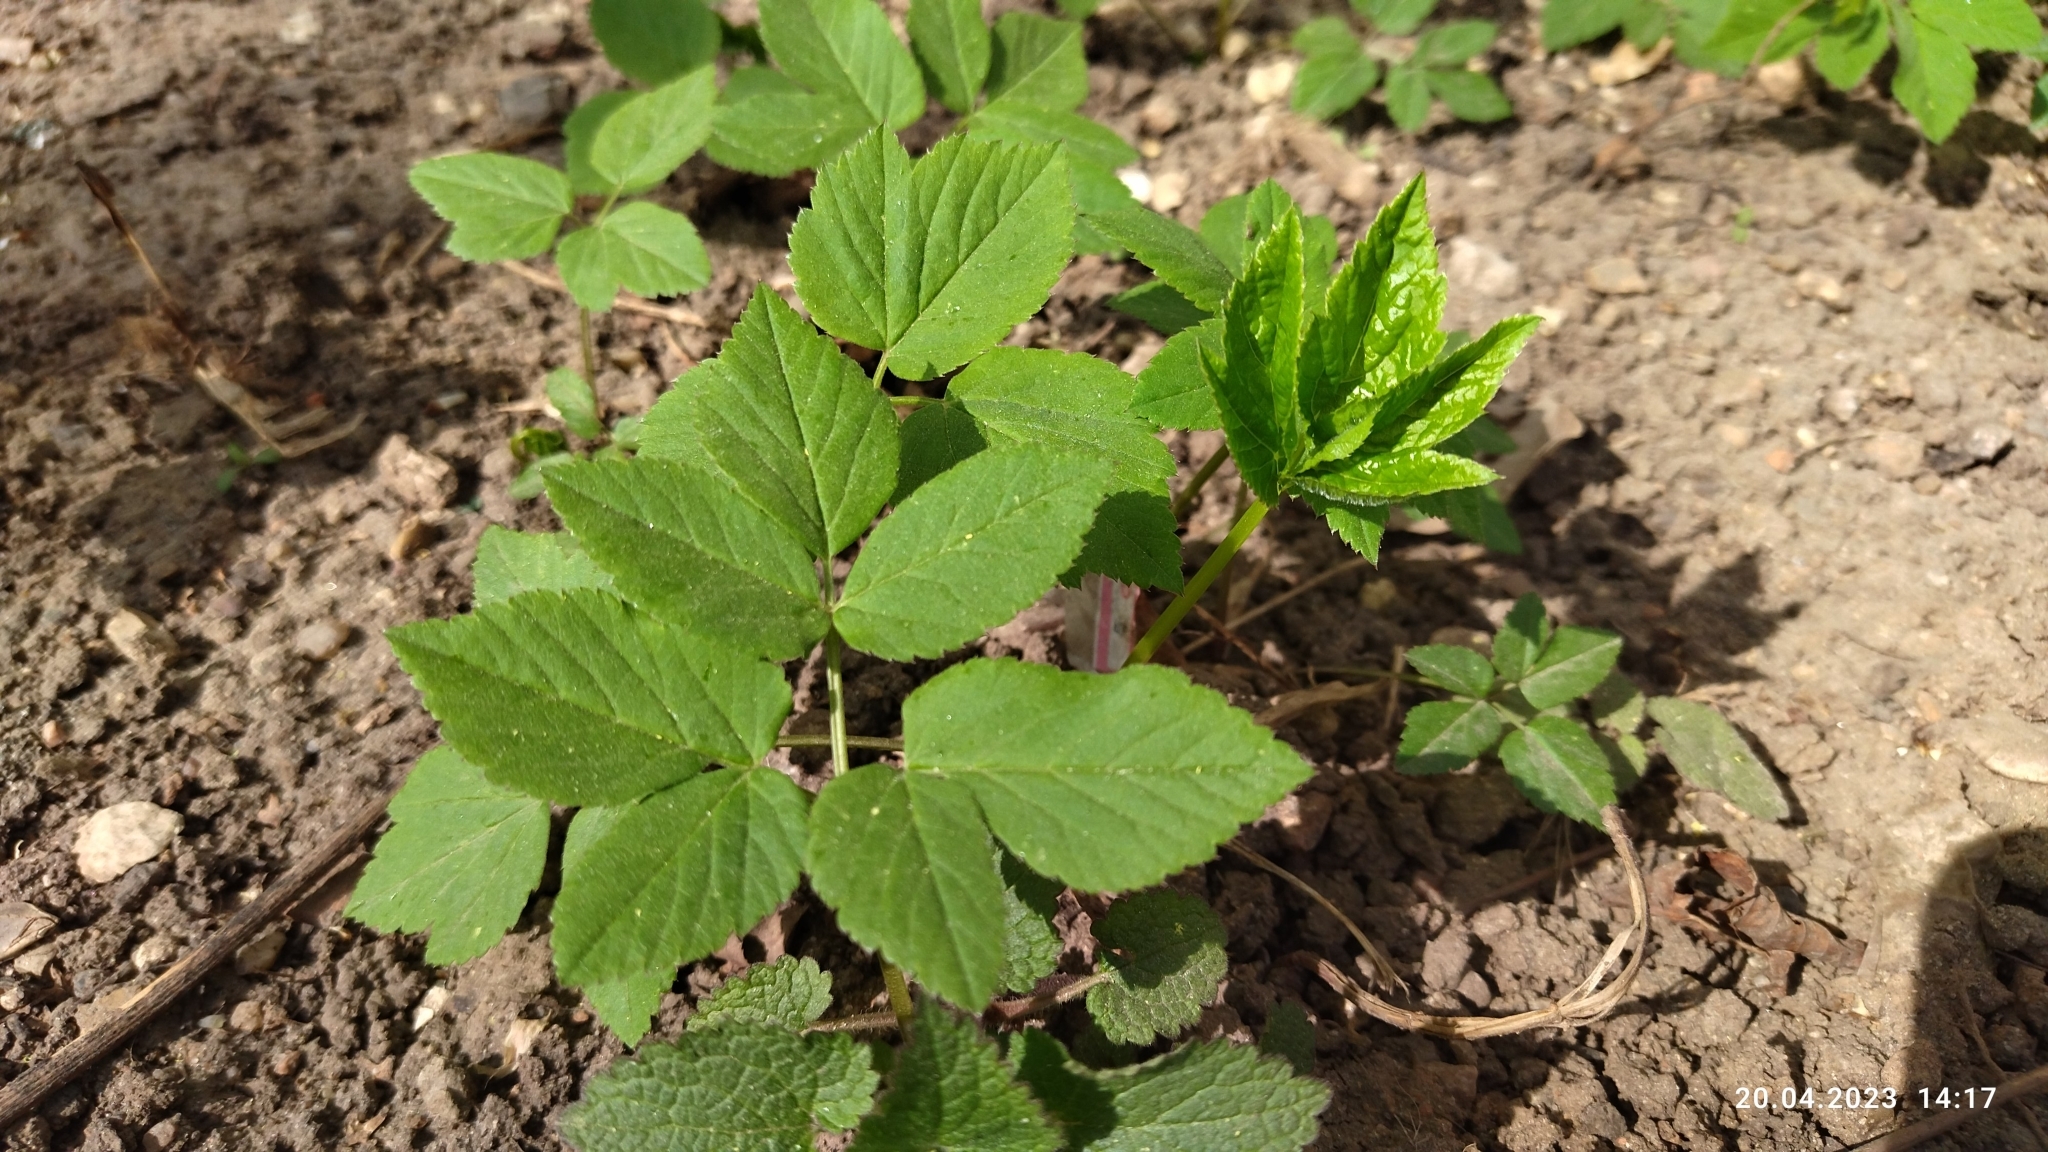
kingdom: Plantae
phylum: Tracheophyta
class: Magnoliopsida
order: Apiales
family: Apiaceae
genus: Aegopodium
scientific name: Aegopodium podagraria
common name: Ground-elder
